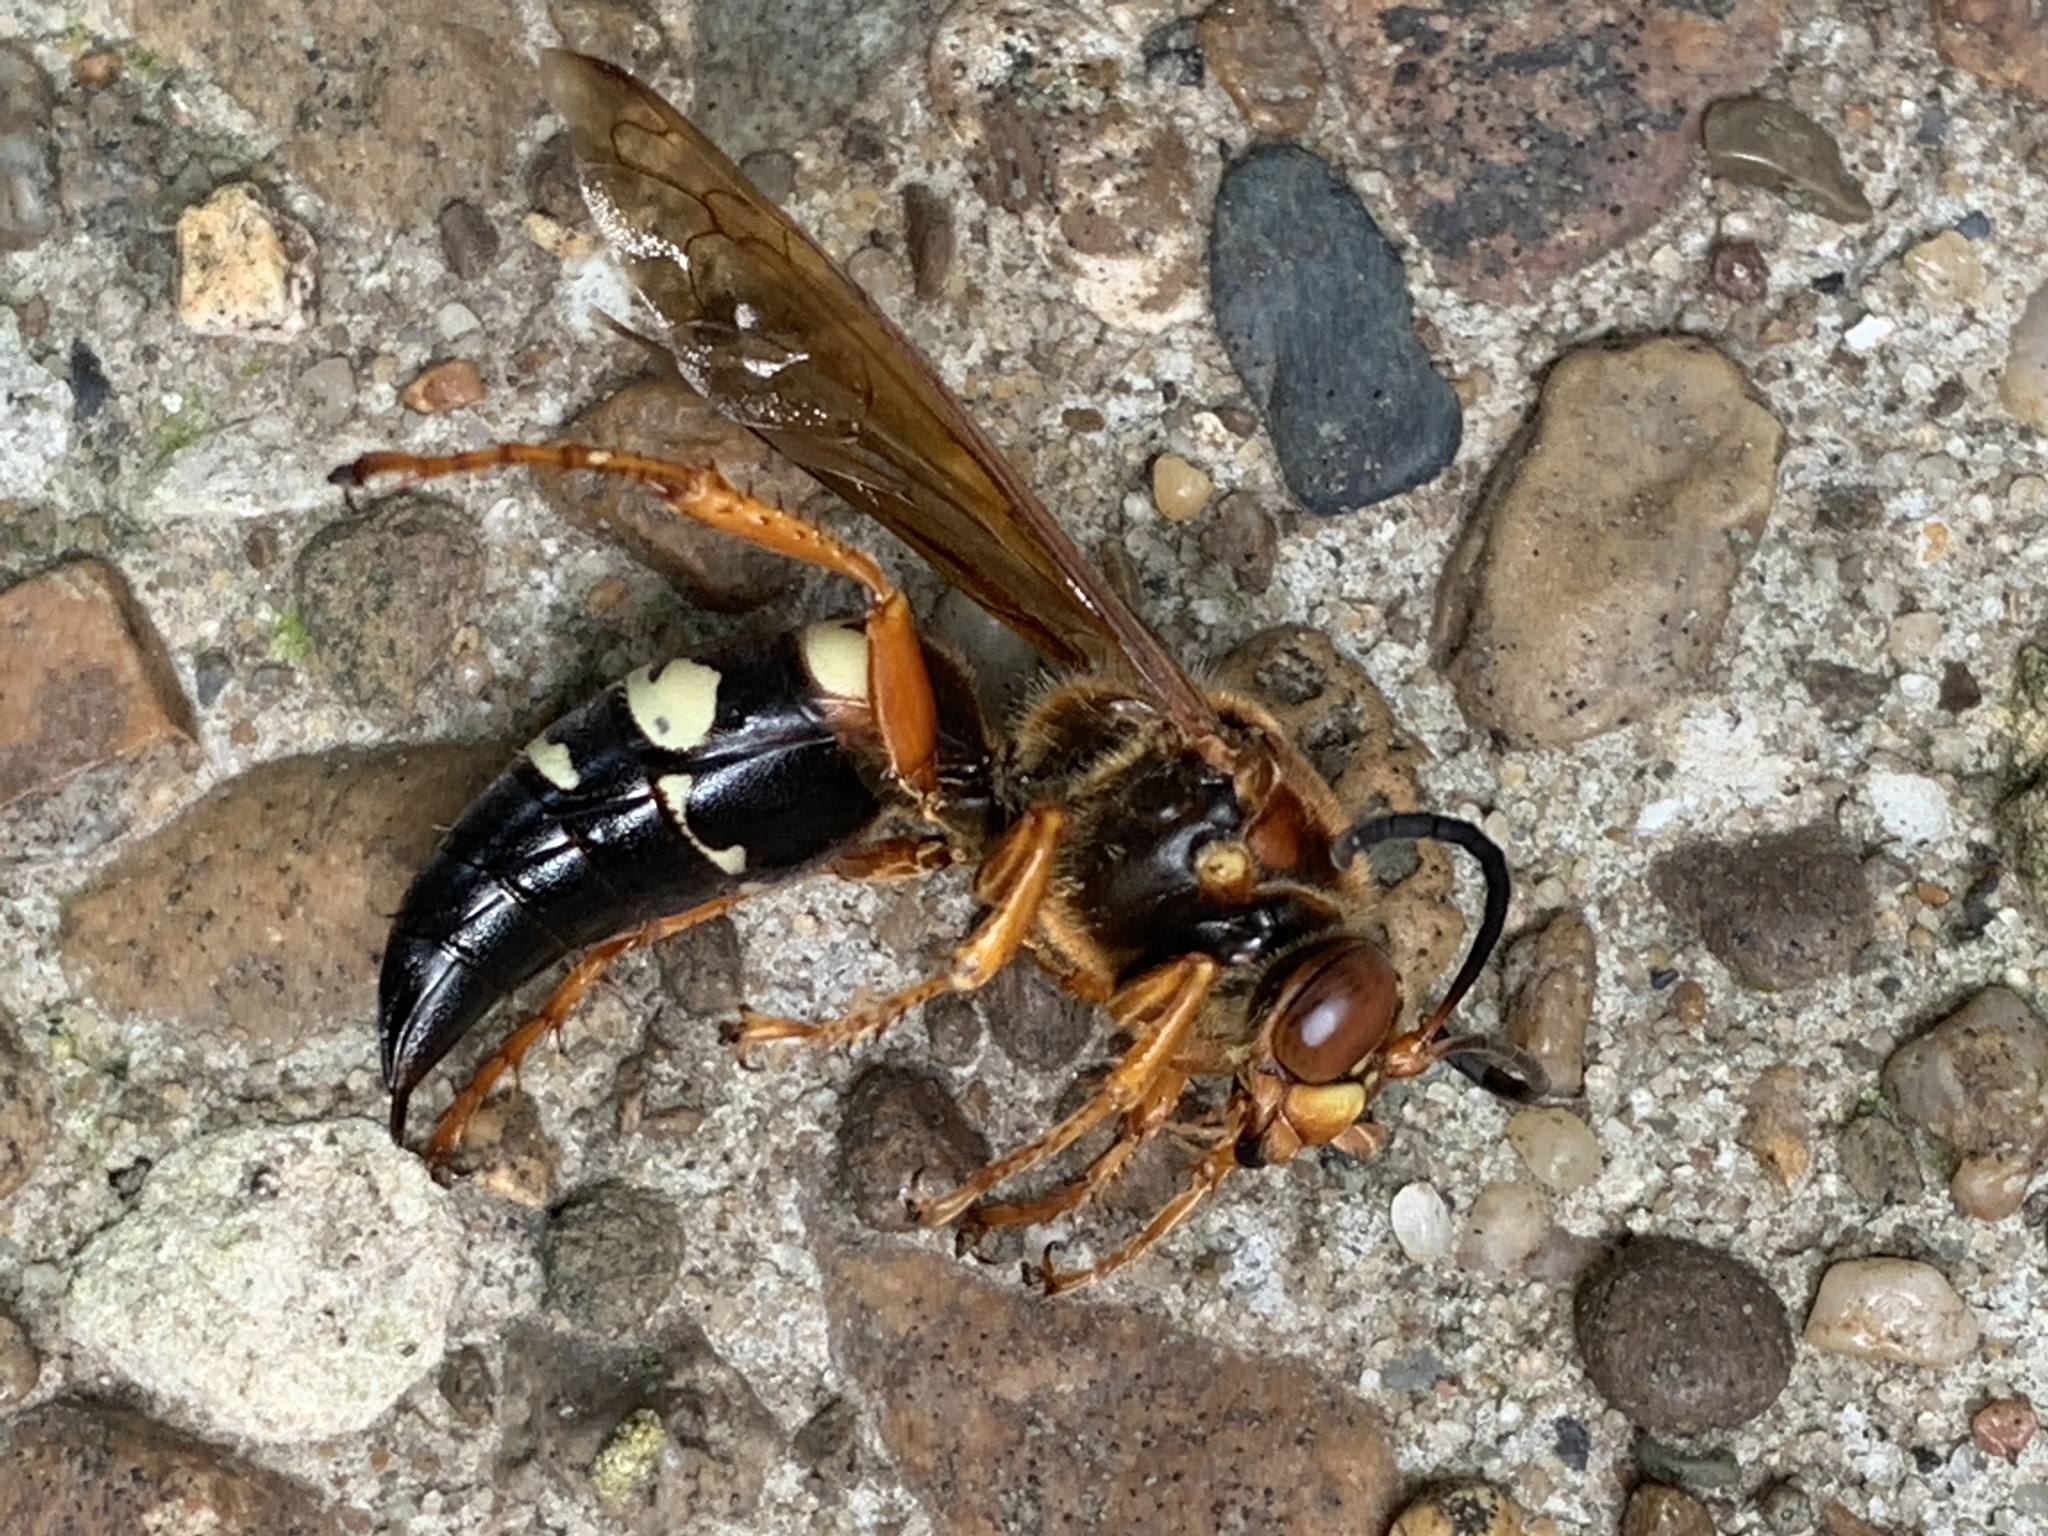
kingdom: Animalia
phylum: Arthropoda
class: Insecta
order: Hymenoptera
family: Crabronidae
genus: Sphecius
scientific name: Sphecius speciosus
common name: Cicada killer
